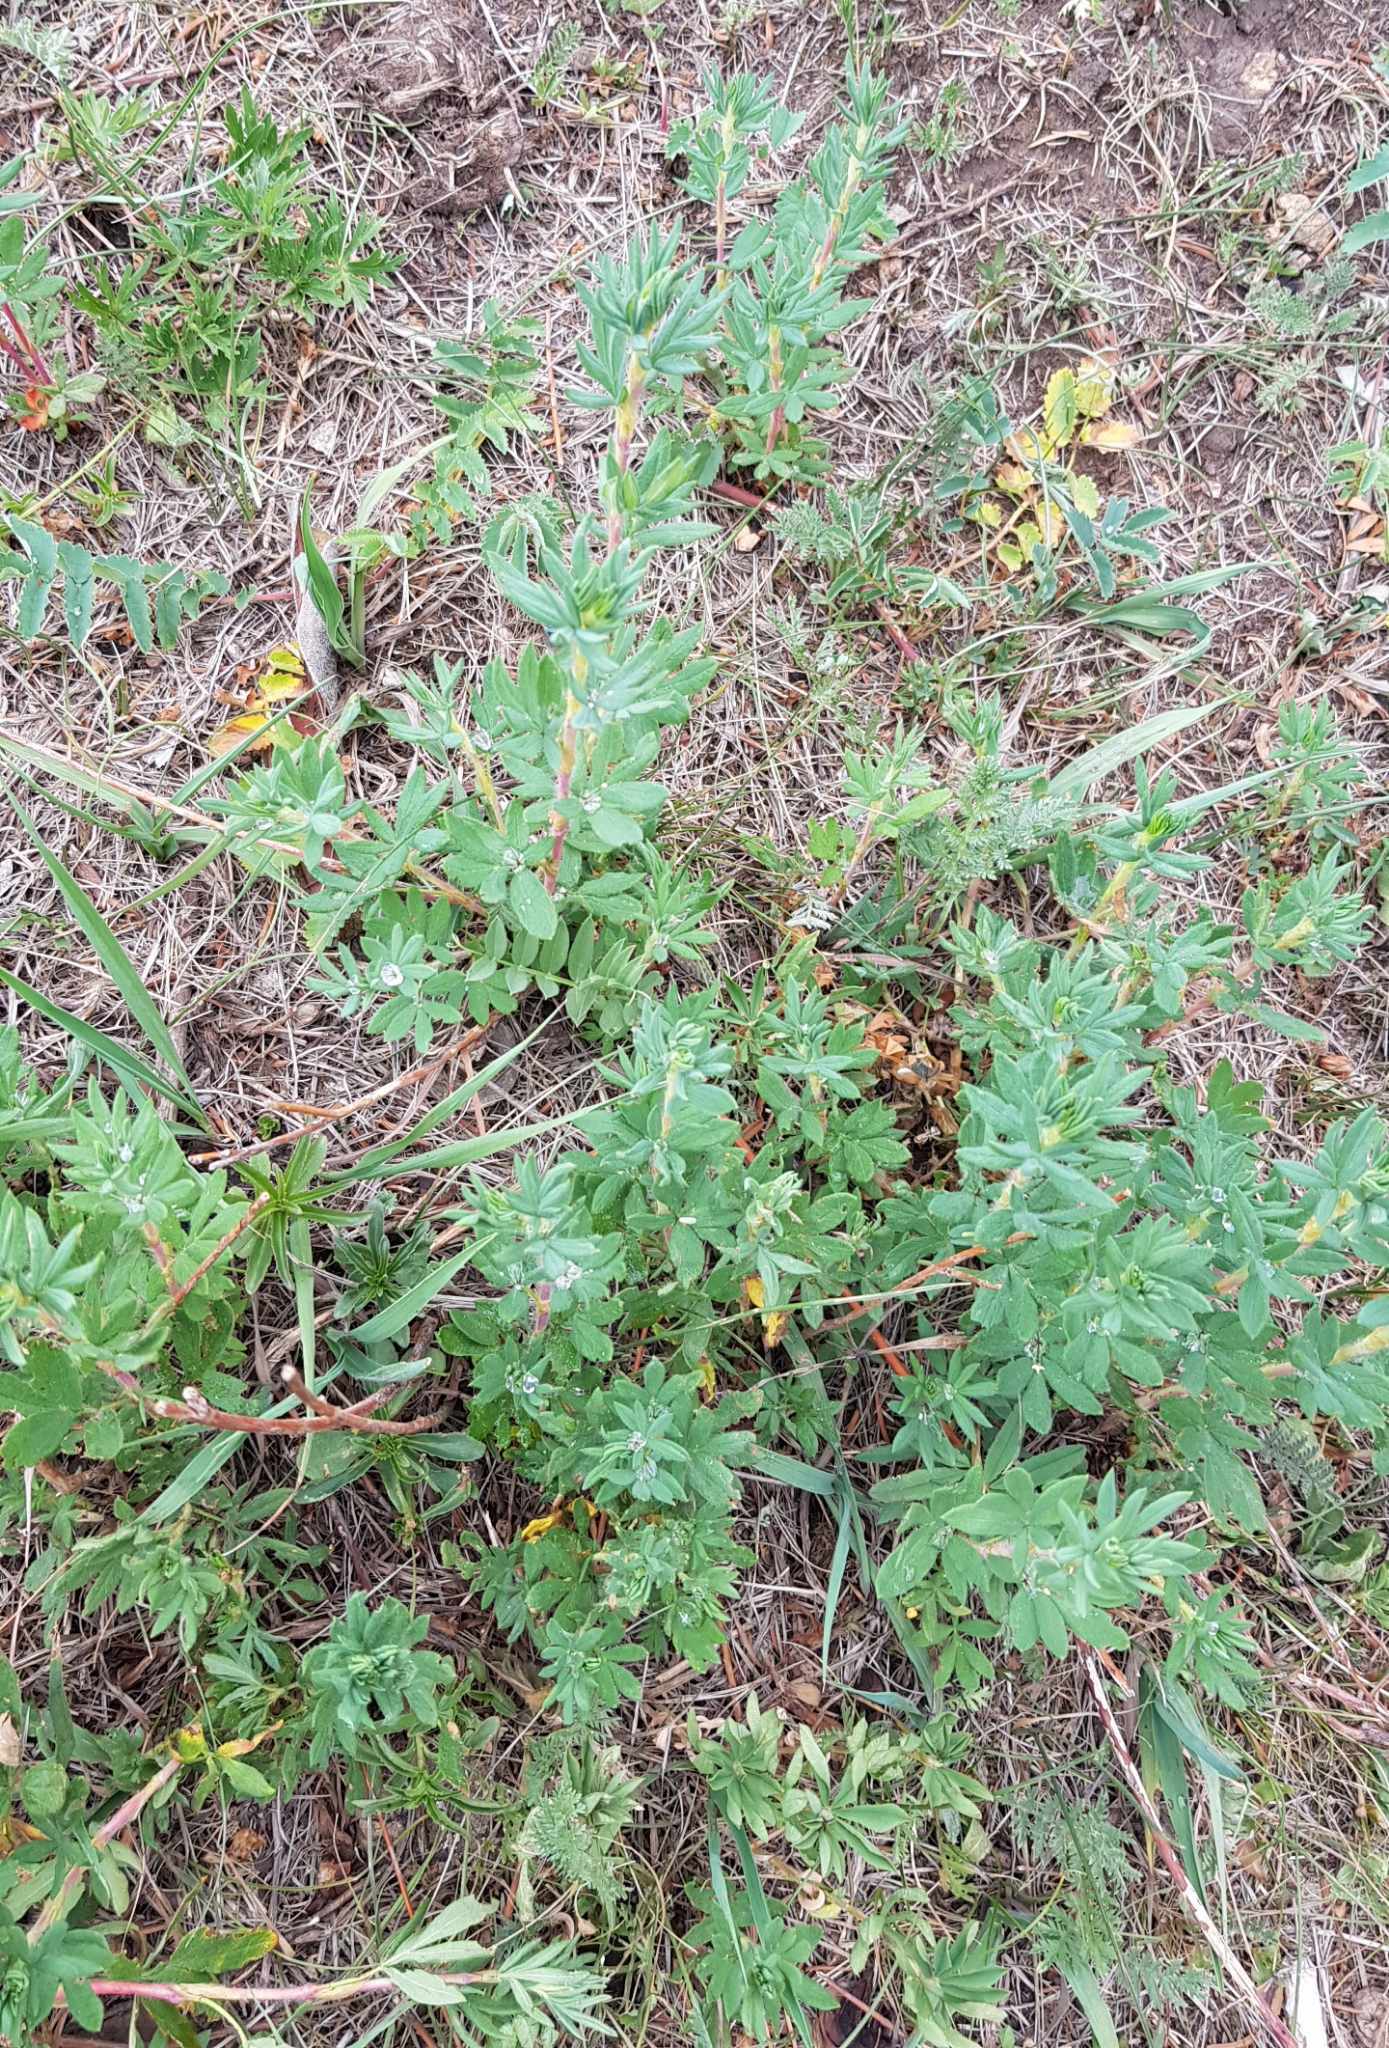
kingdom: Plantae
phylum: Tracheophyta
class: Magnoliopsida
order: Rosales
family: Rosaceae
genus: Dasiphora
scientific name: Dasiphora fruticosa
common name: Shrubby cinquefoil
